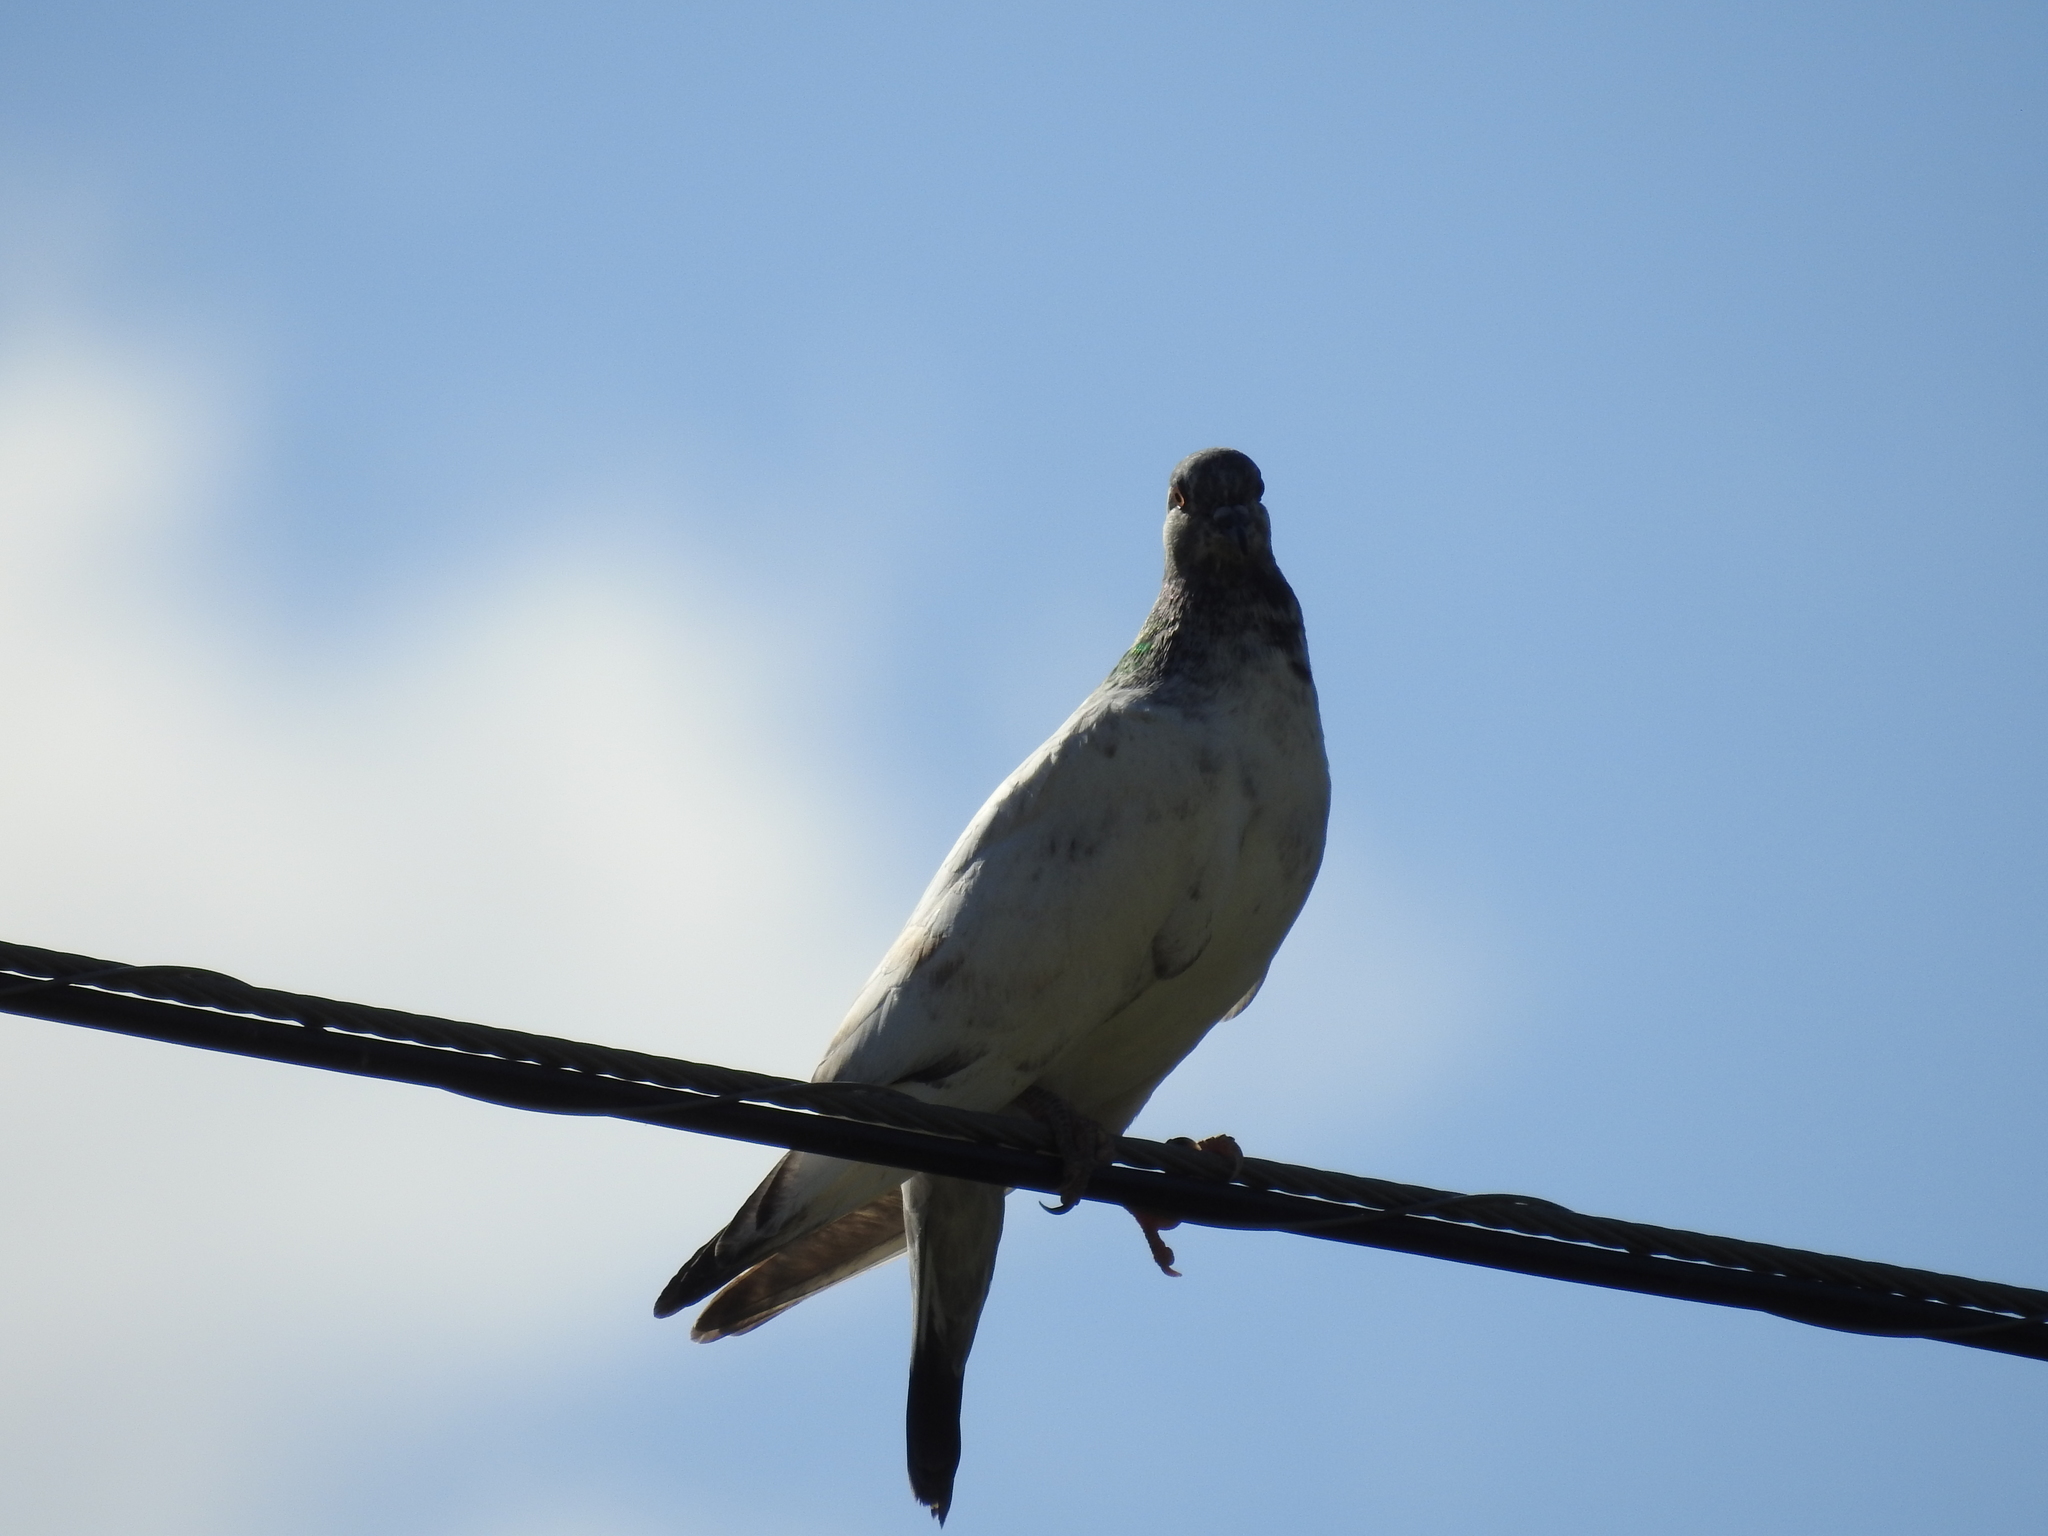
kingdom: Animalia
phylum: Chordata
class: Aves
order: Columbiformes
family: Columbidae
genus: Columba
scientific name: Columba livia
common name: Rock pigeon
